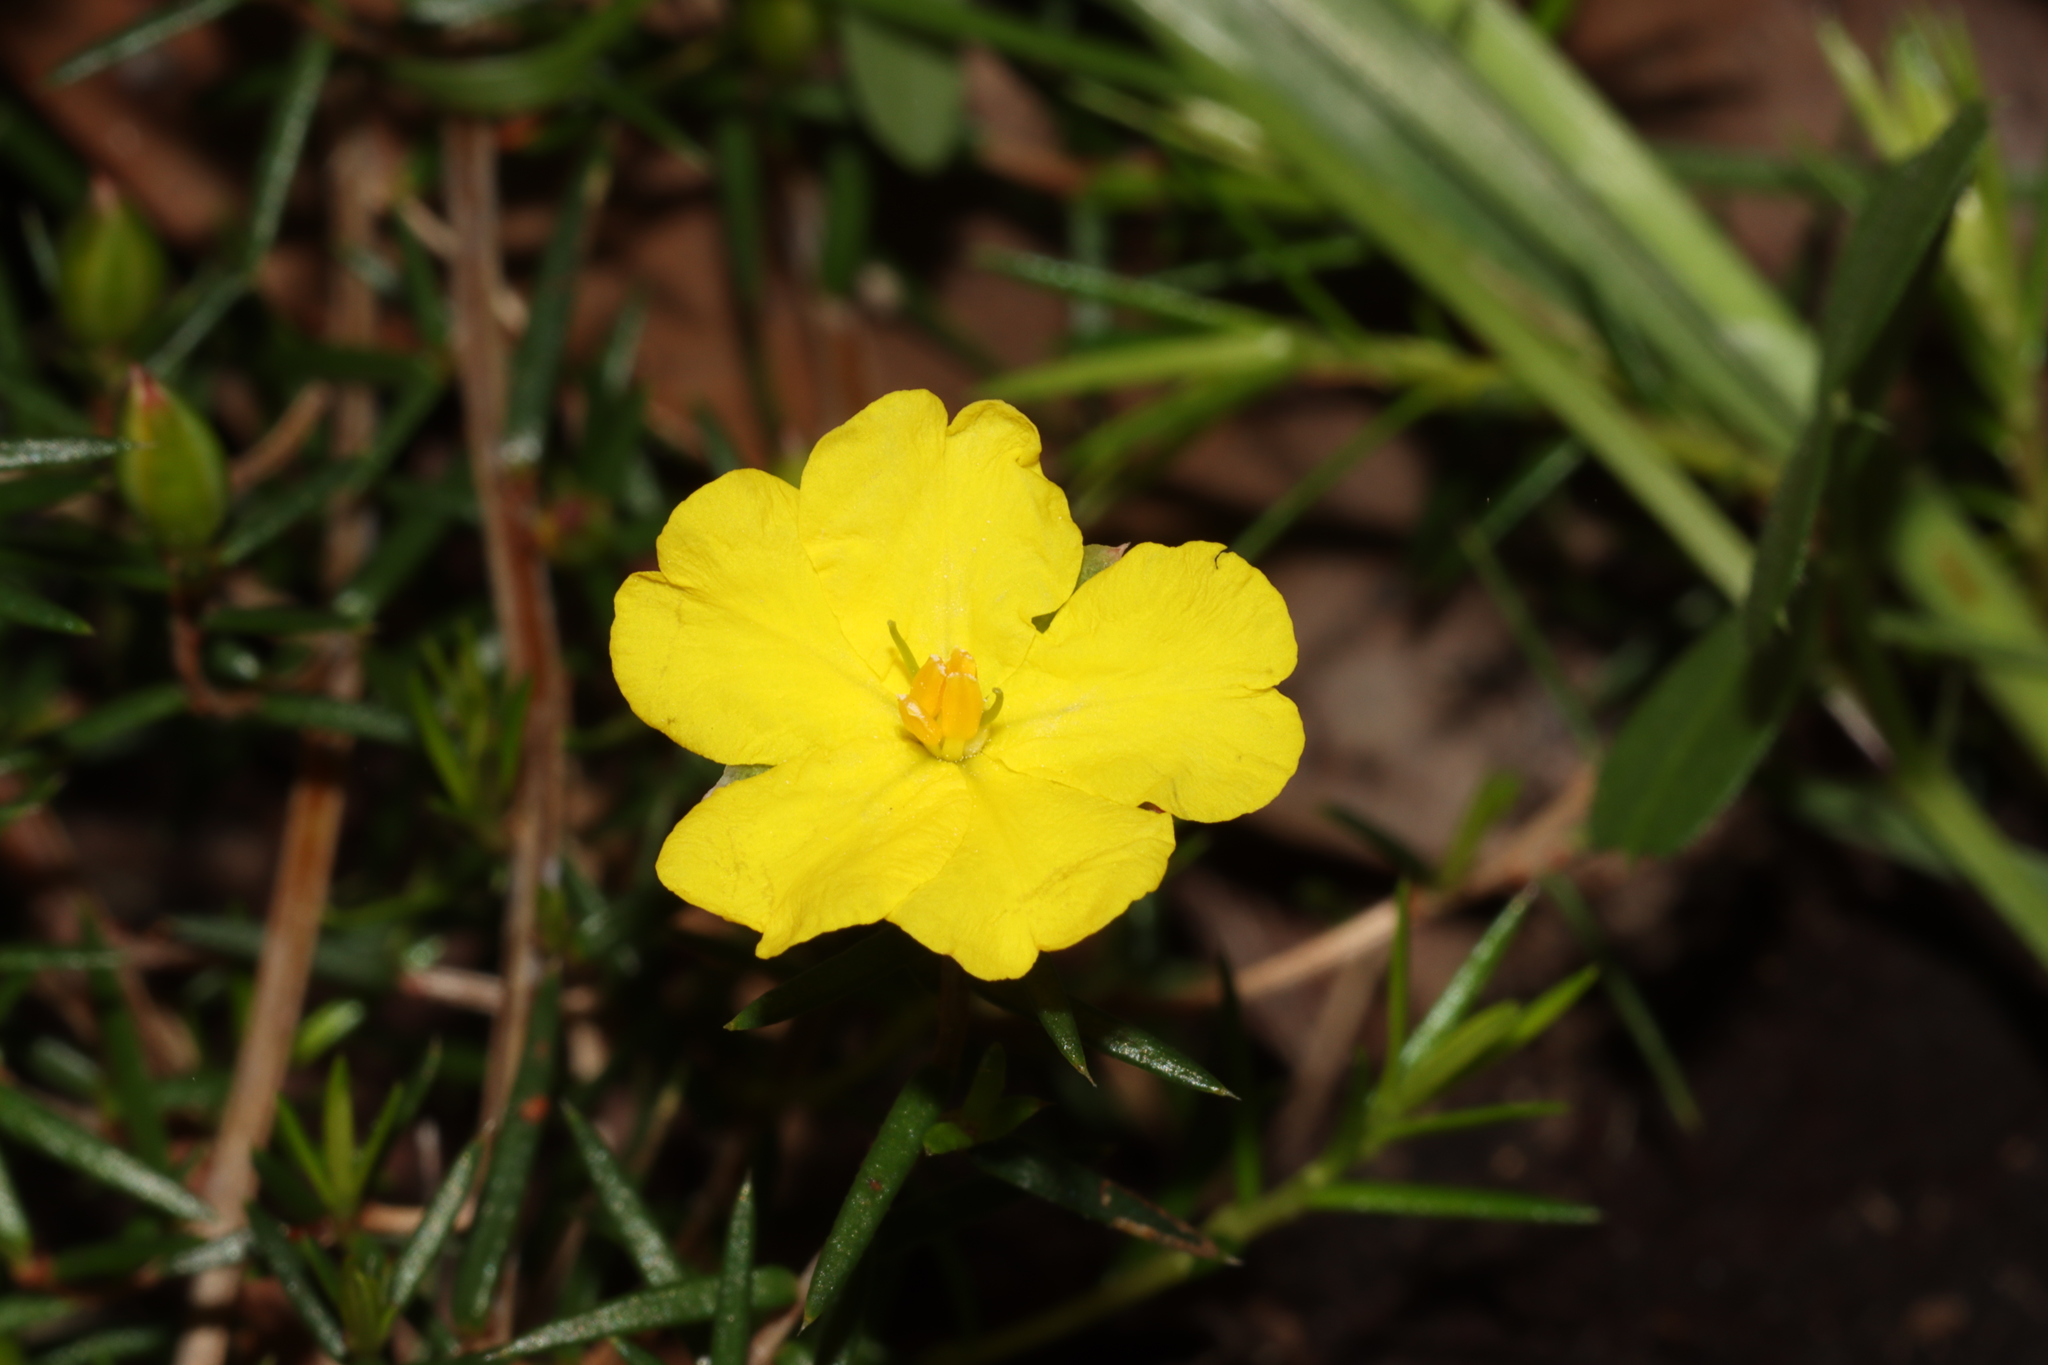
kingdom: Plantae
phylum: Tracheophyta
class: Magnoliopsida
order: Dilleniales
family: Dilleniaceae
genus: Hibbertia
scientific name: Hibbertia exutiacies
